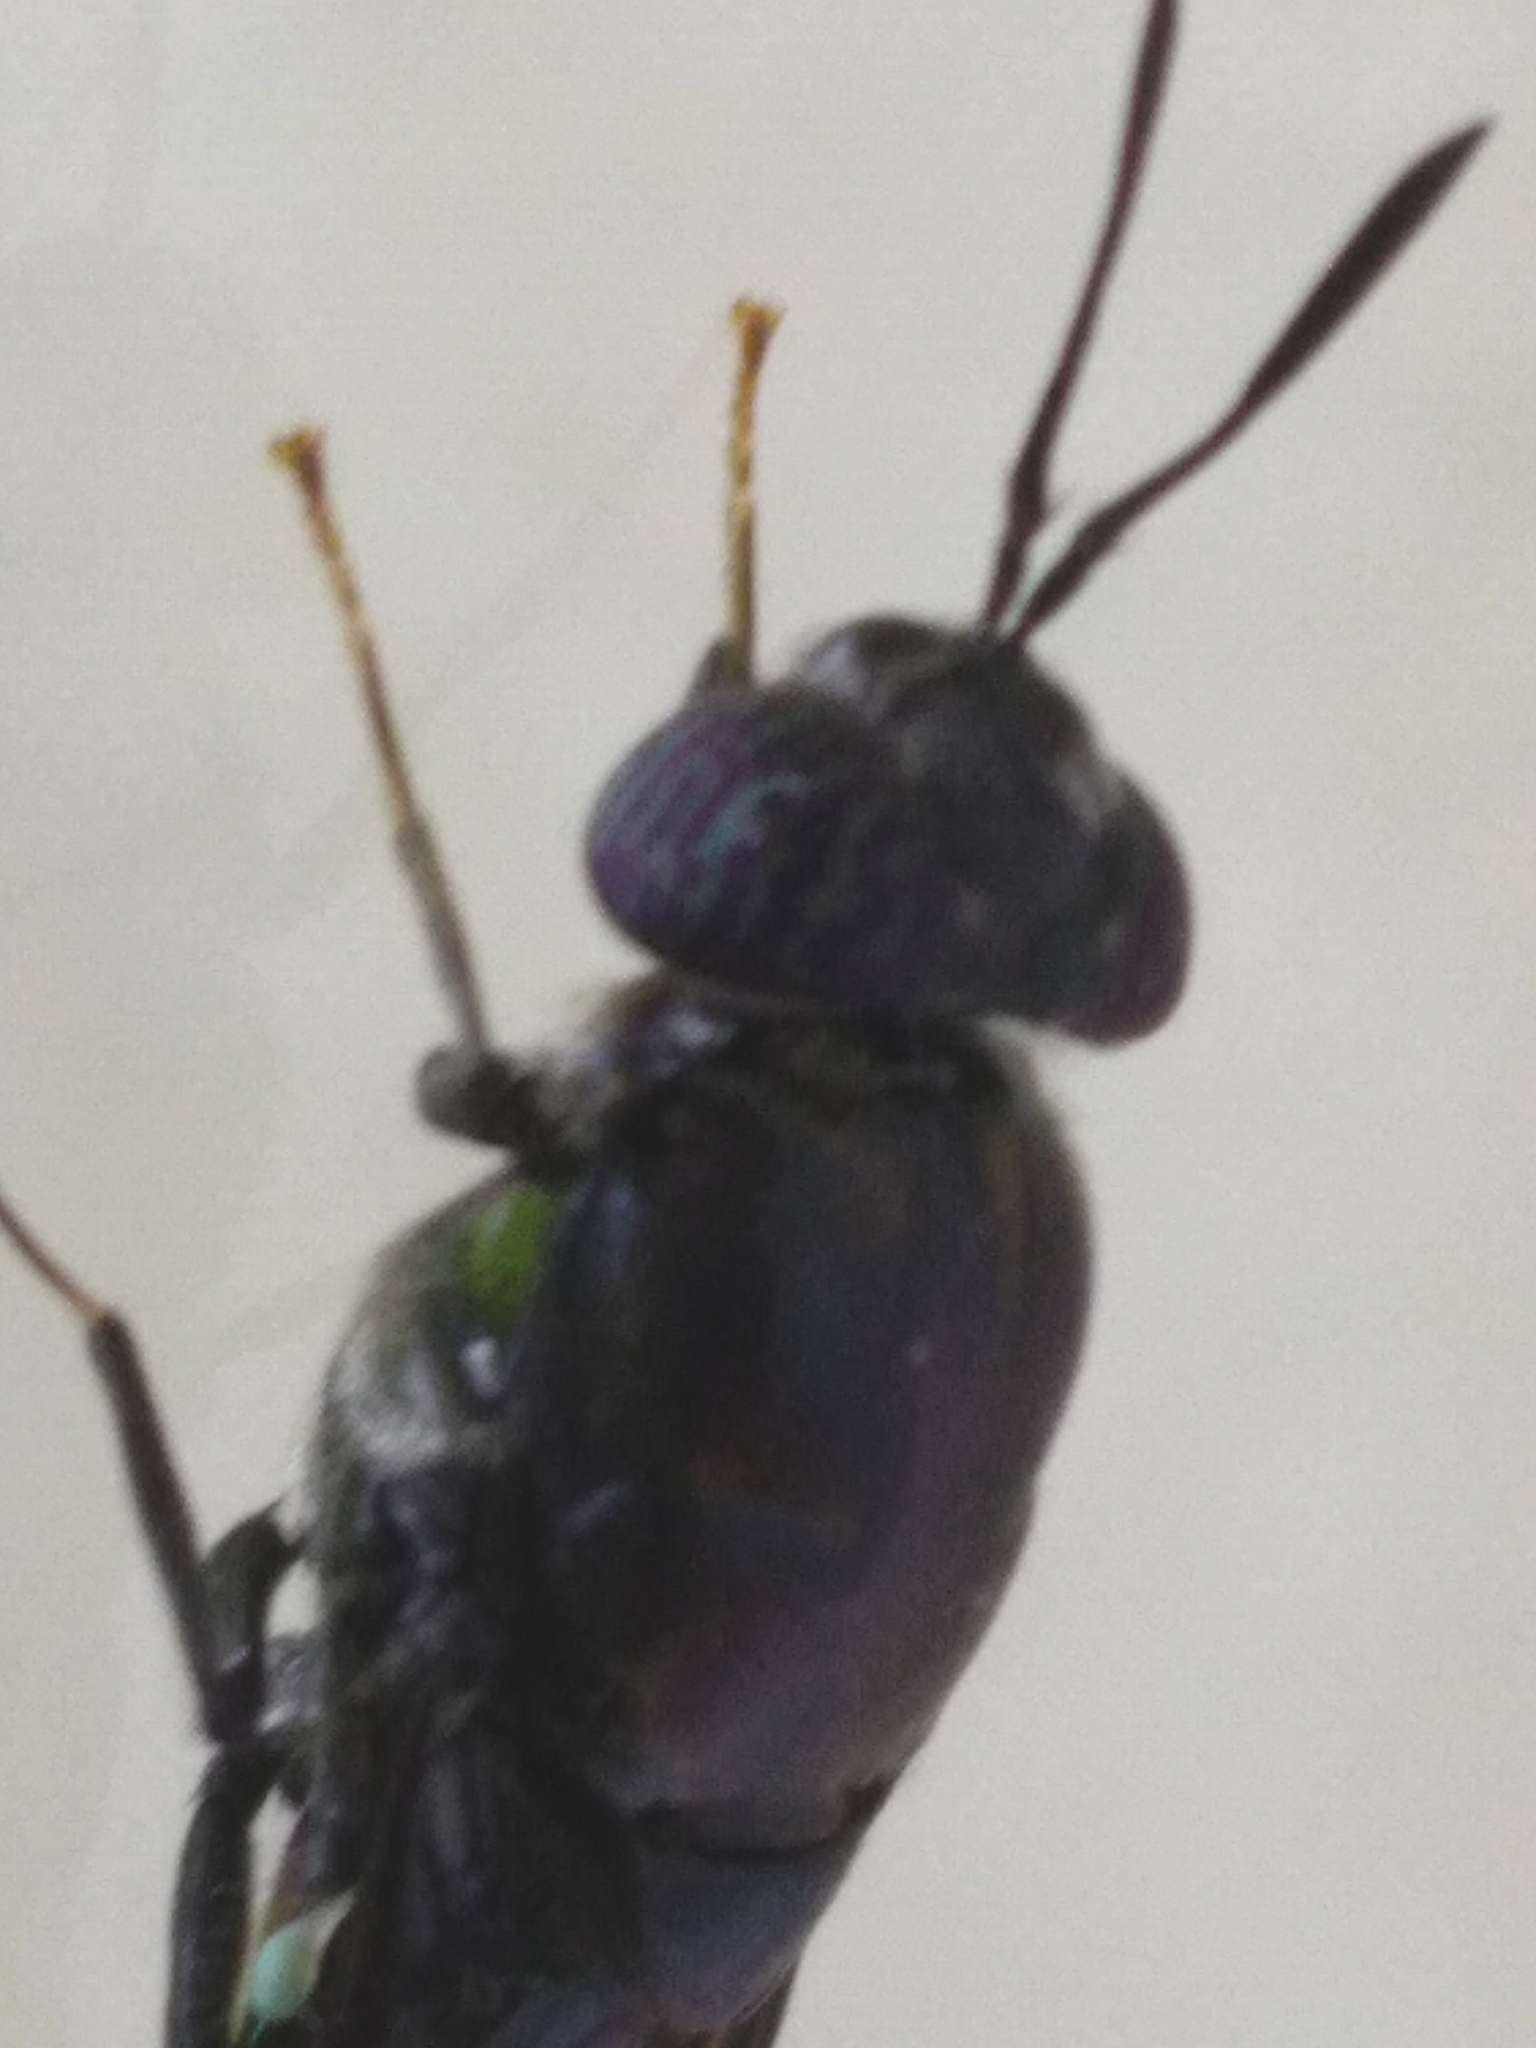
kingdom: Animalia
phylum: Arthropoda
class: Insecta
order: Diptera
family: Stratiomyidae
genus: Hermetia
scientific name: Hermetia illucens
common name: Black soldier fly
